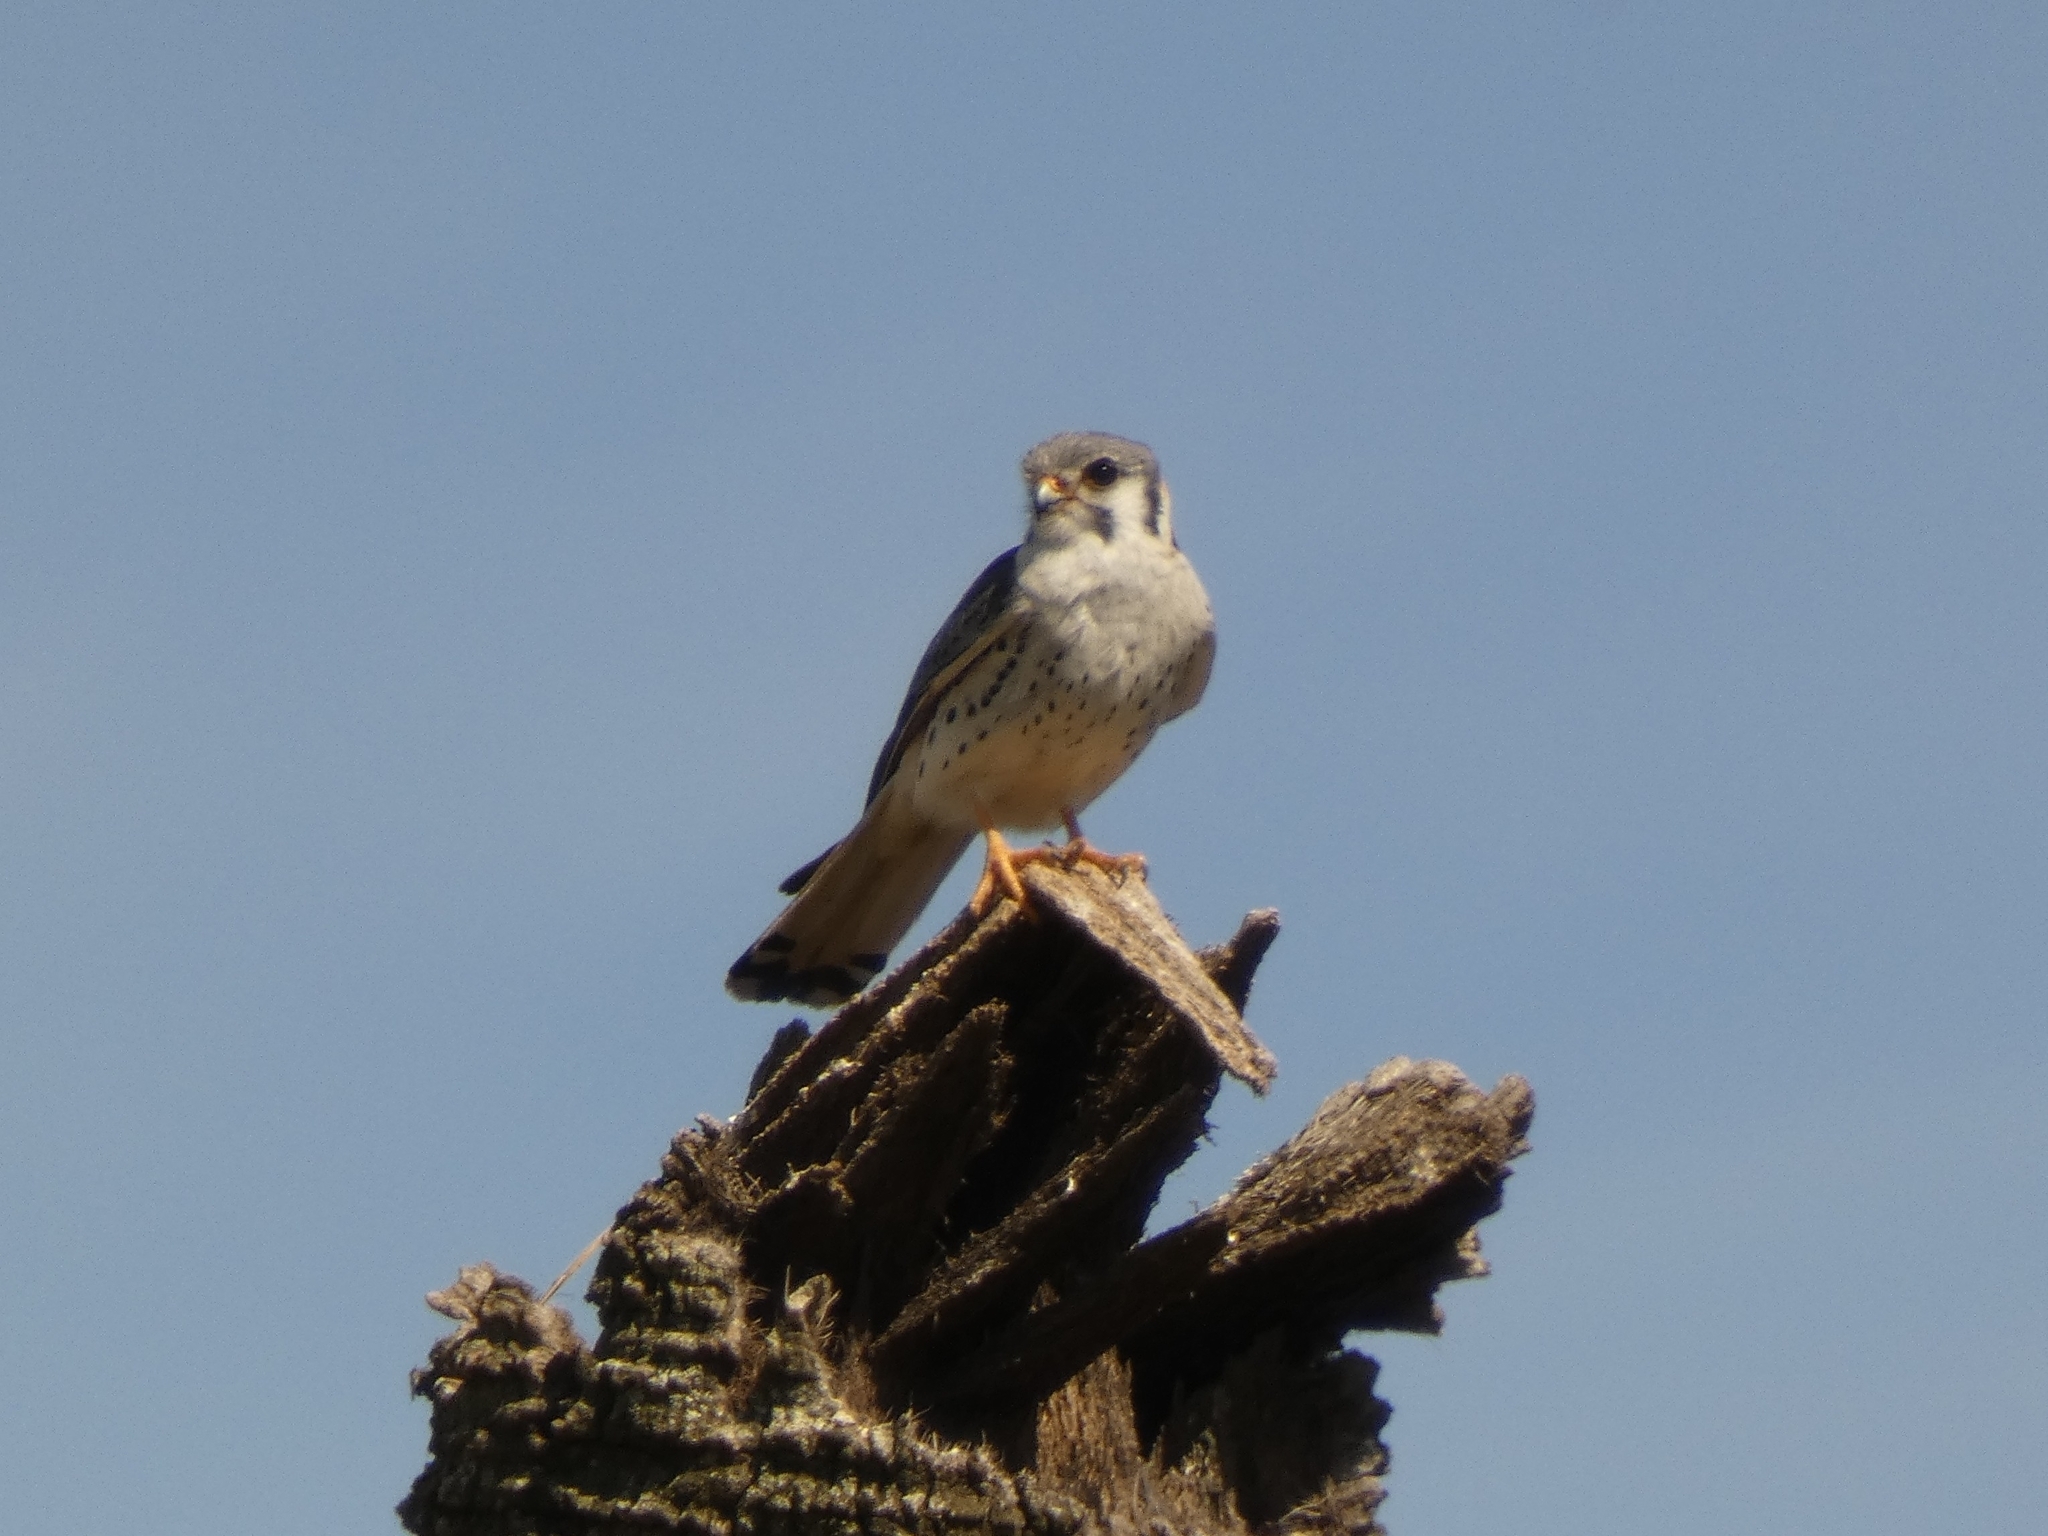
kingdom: Animalia
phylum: Chordata
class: Aves
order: Falconiformes
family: Falconidae
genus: Falco
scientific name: Falco sparverius
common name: American kestrel
